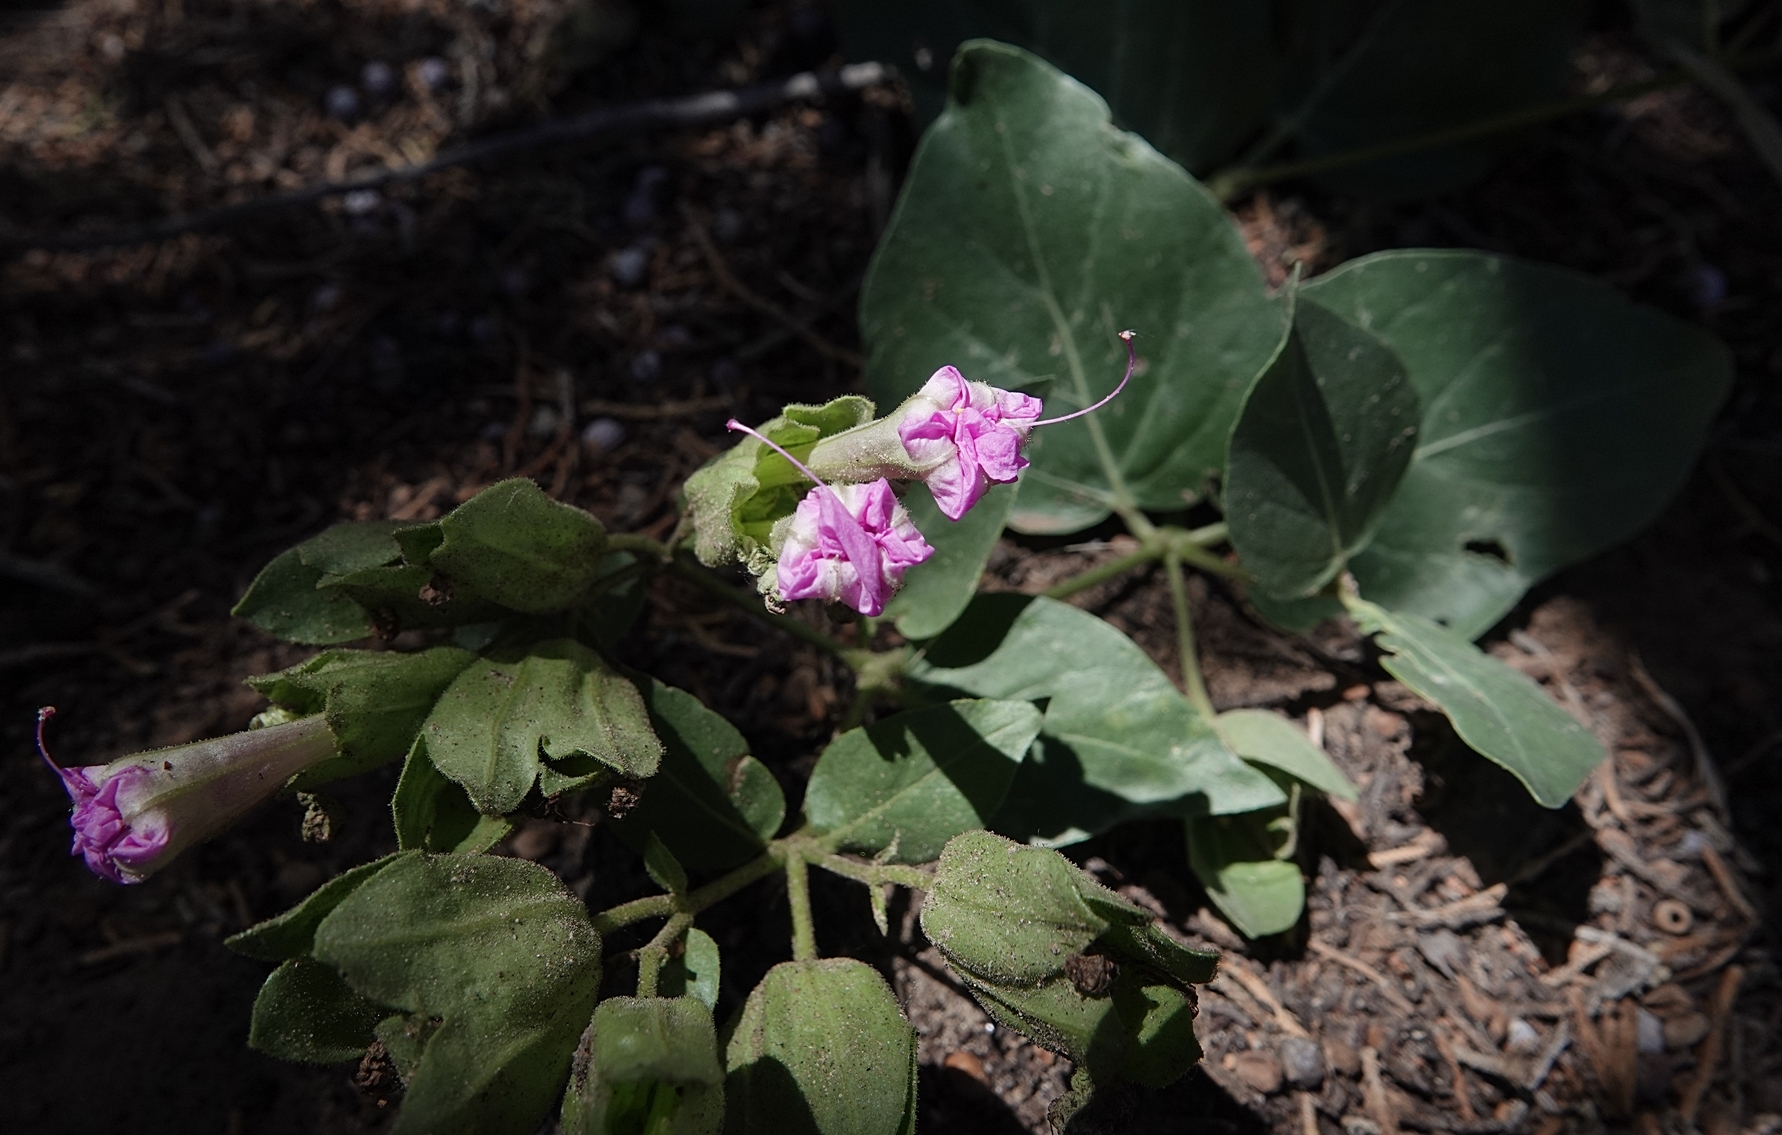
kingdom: Plantae
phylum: Tracheophyta
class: Magnoliopsida
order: Caryophyllales
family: Nyctaginaceae
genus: Mirabilis
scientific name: Mirabilis multiflora
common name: Froebel's four-o'clock
